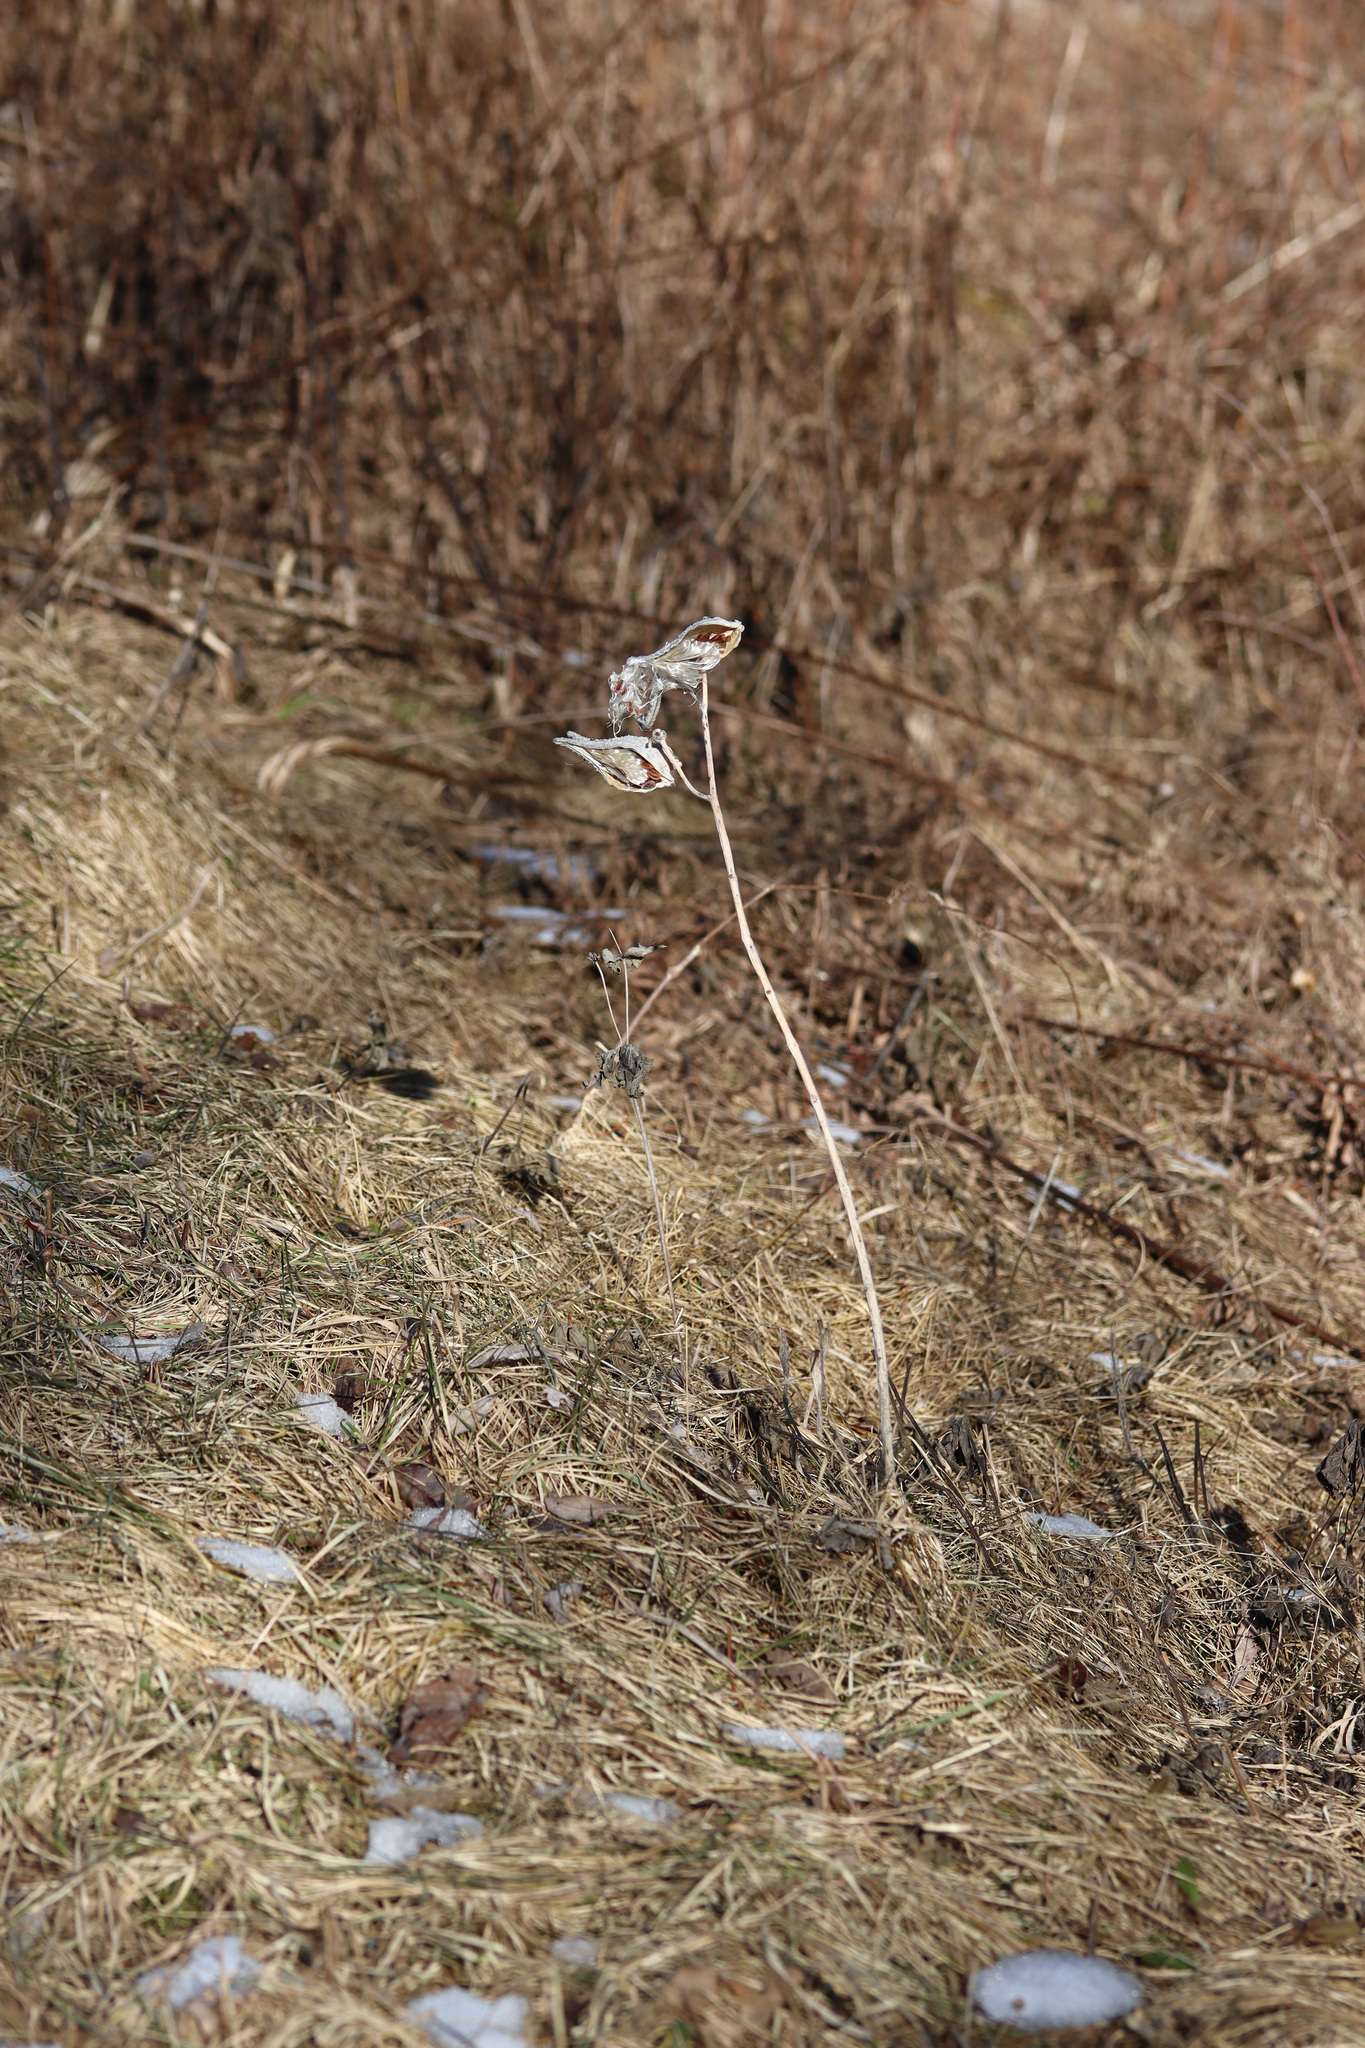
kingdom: Plantae
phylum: Tracheophyta
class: Magnoliopsida
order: Gentianales
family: Apocynaceae
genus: Asclepias
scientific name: Asclepias syriaca
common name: Common milkweed
